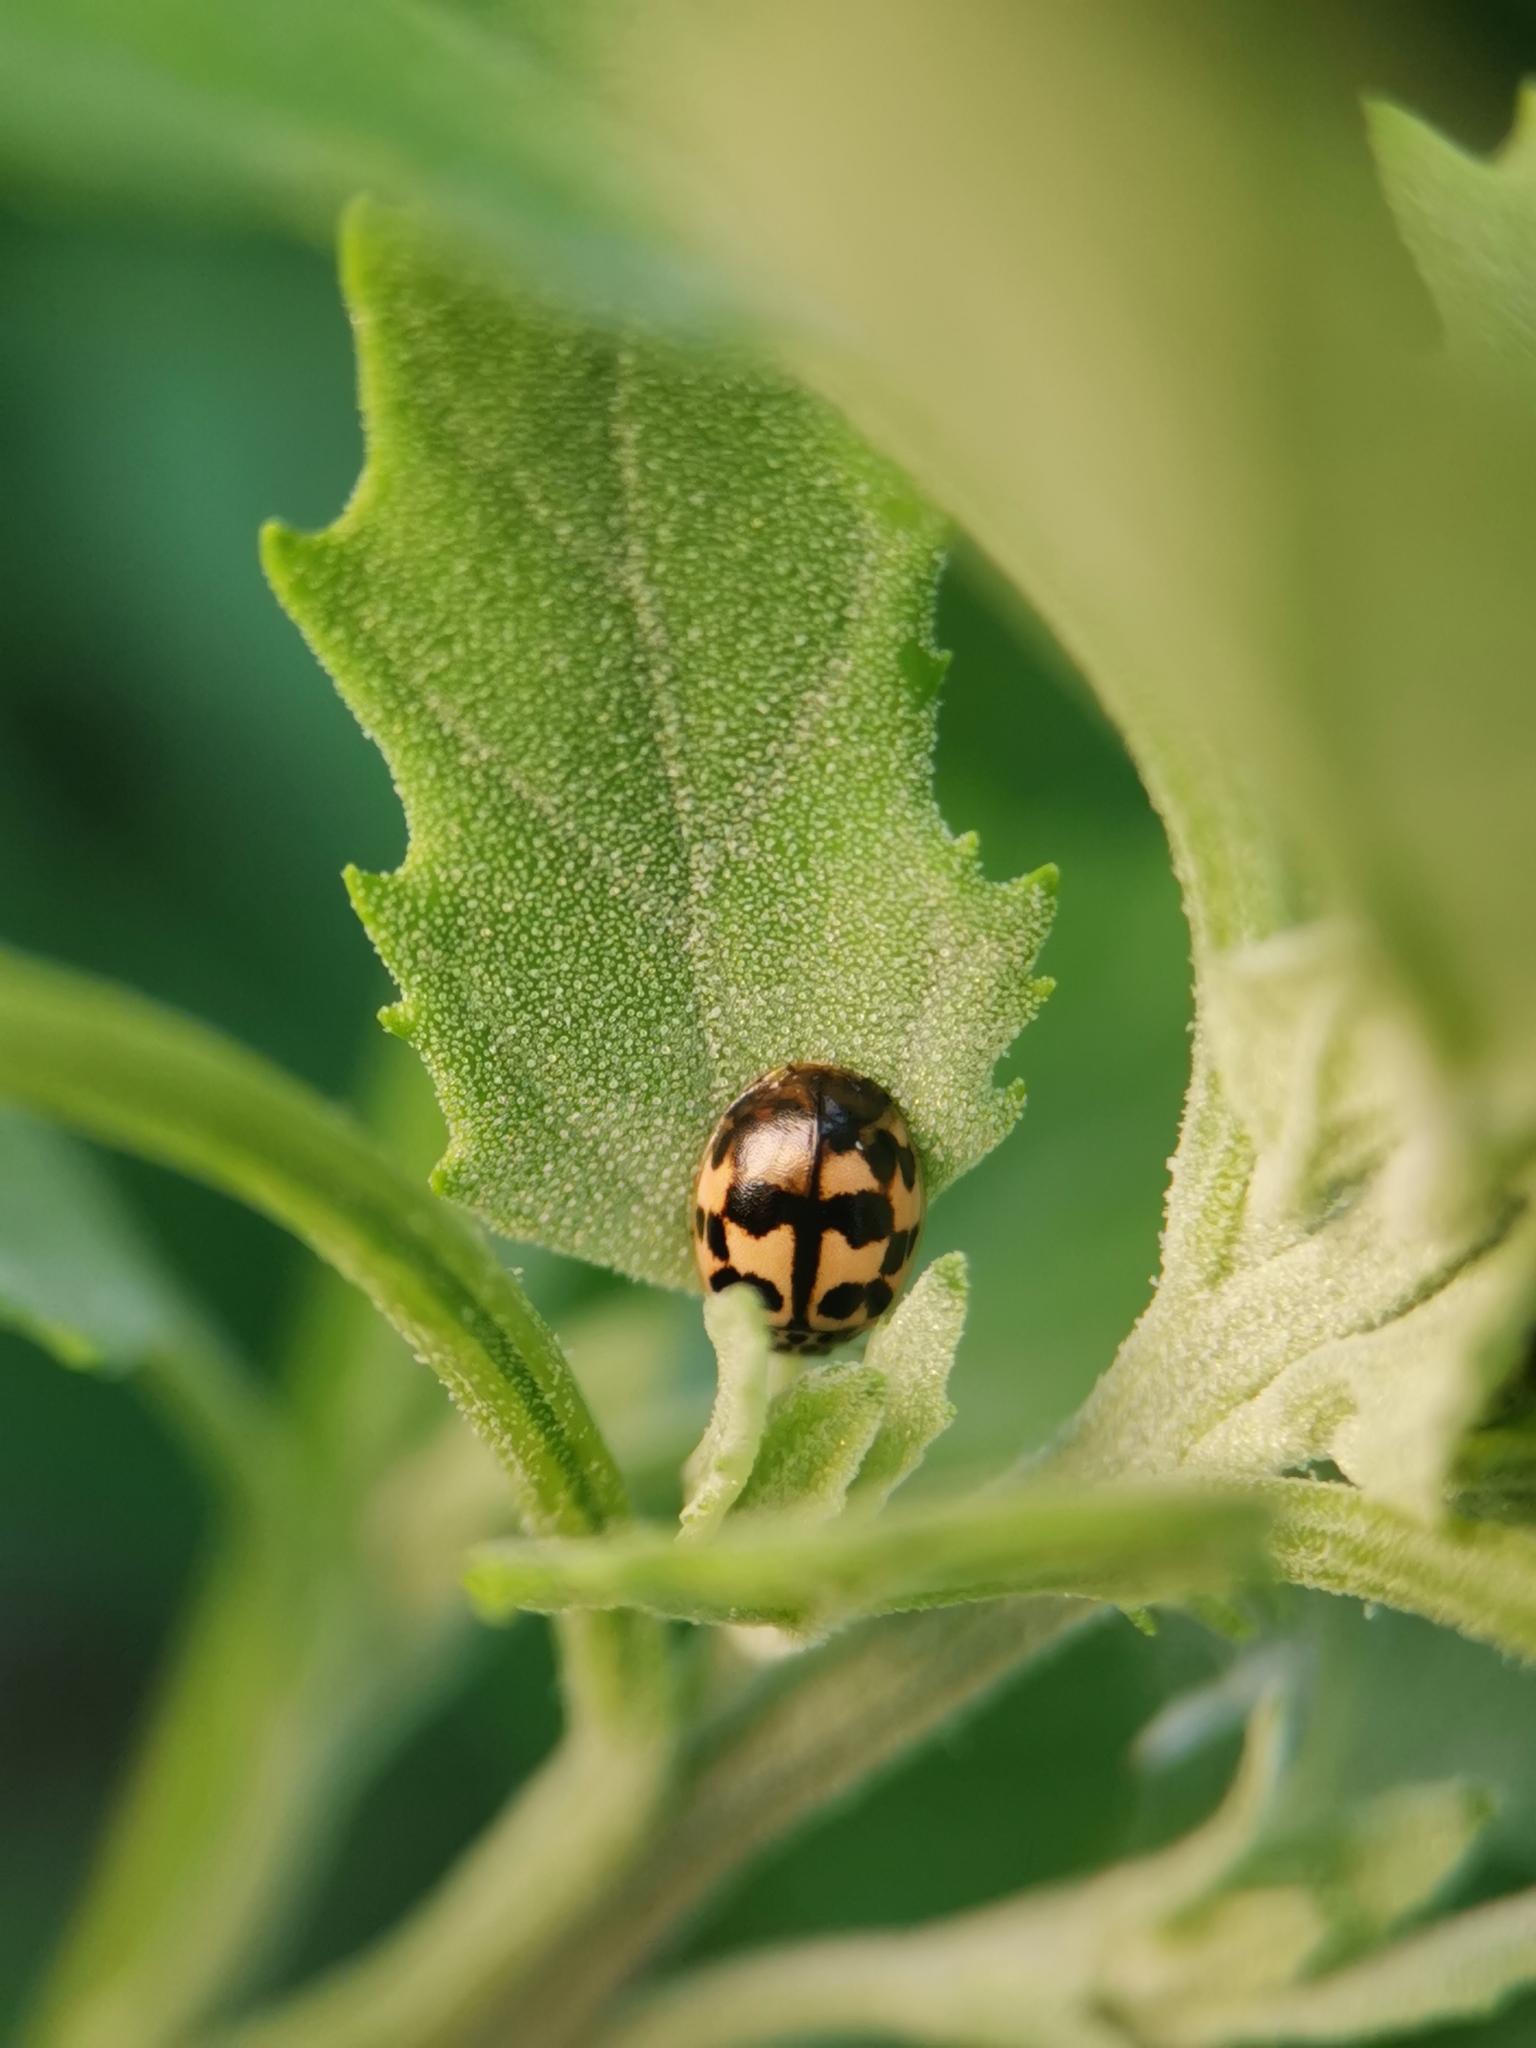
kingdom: Animalia
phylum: Arthropoda
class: Insecta
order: Coleoptera
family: Coccinellidae
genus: Oenopia
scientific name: Oenopia conglobata
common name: Ladybird beetle
